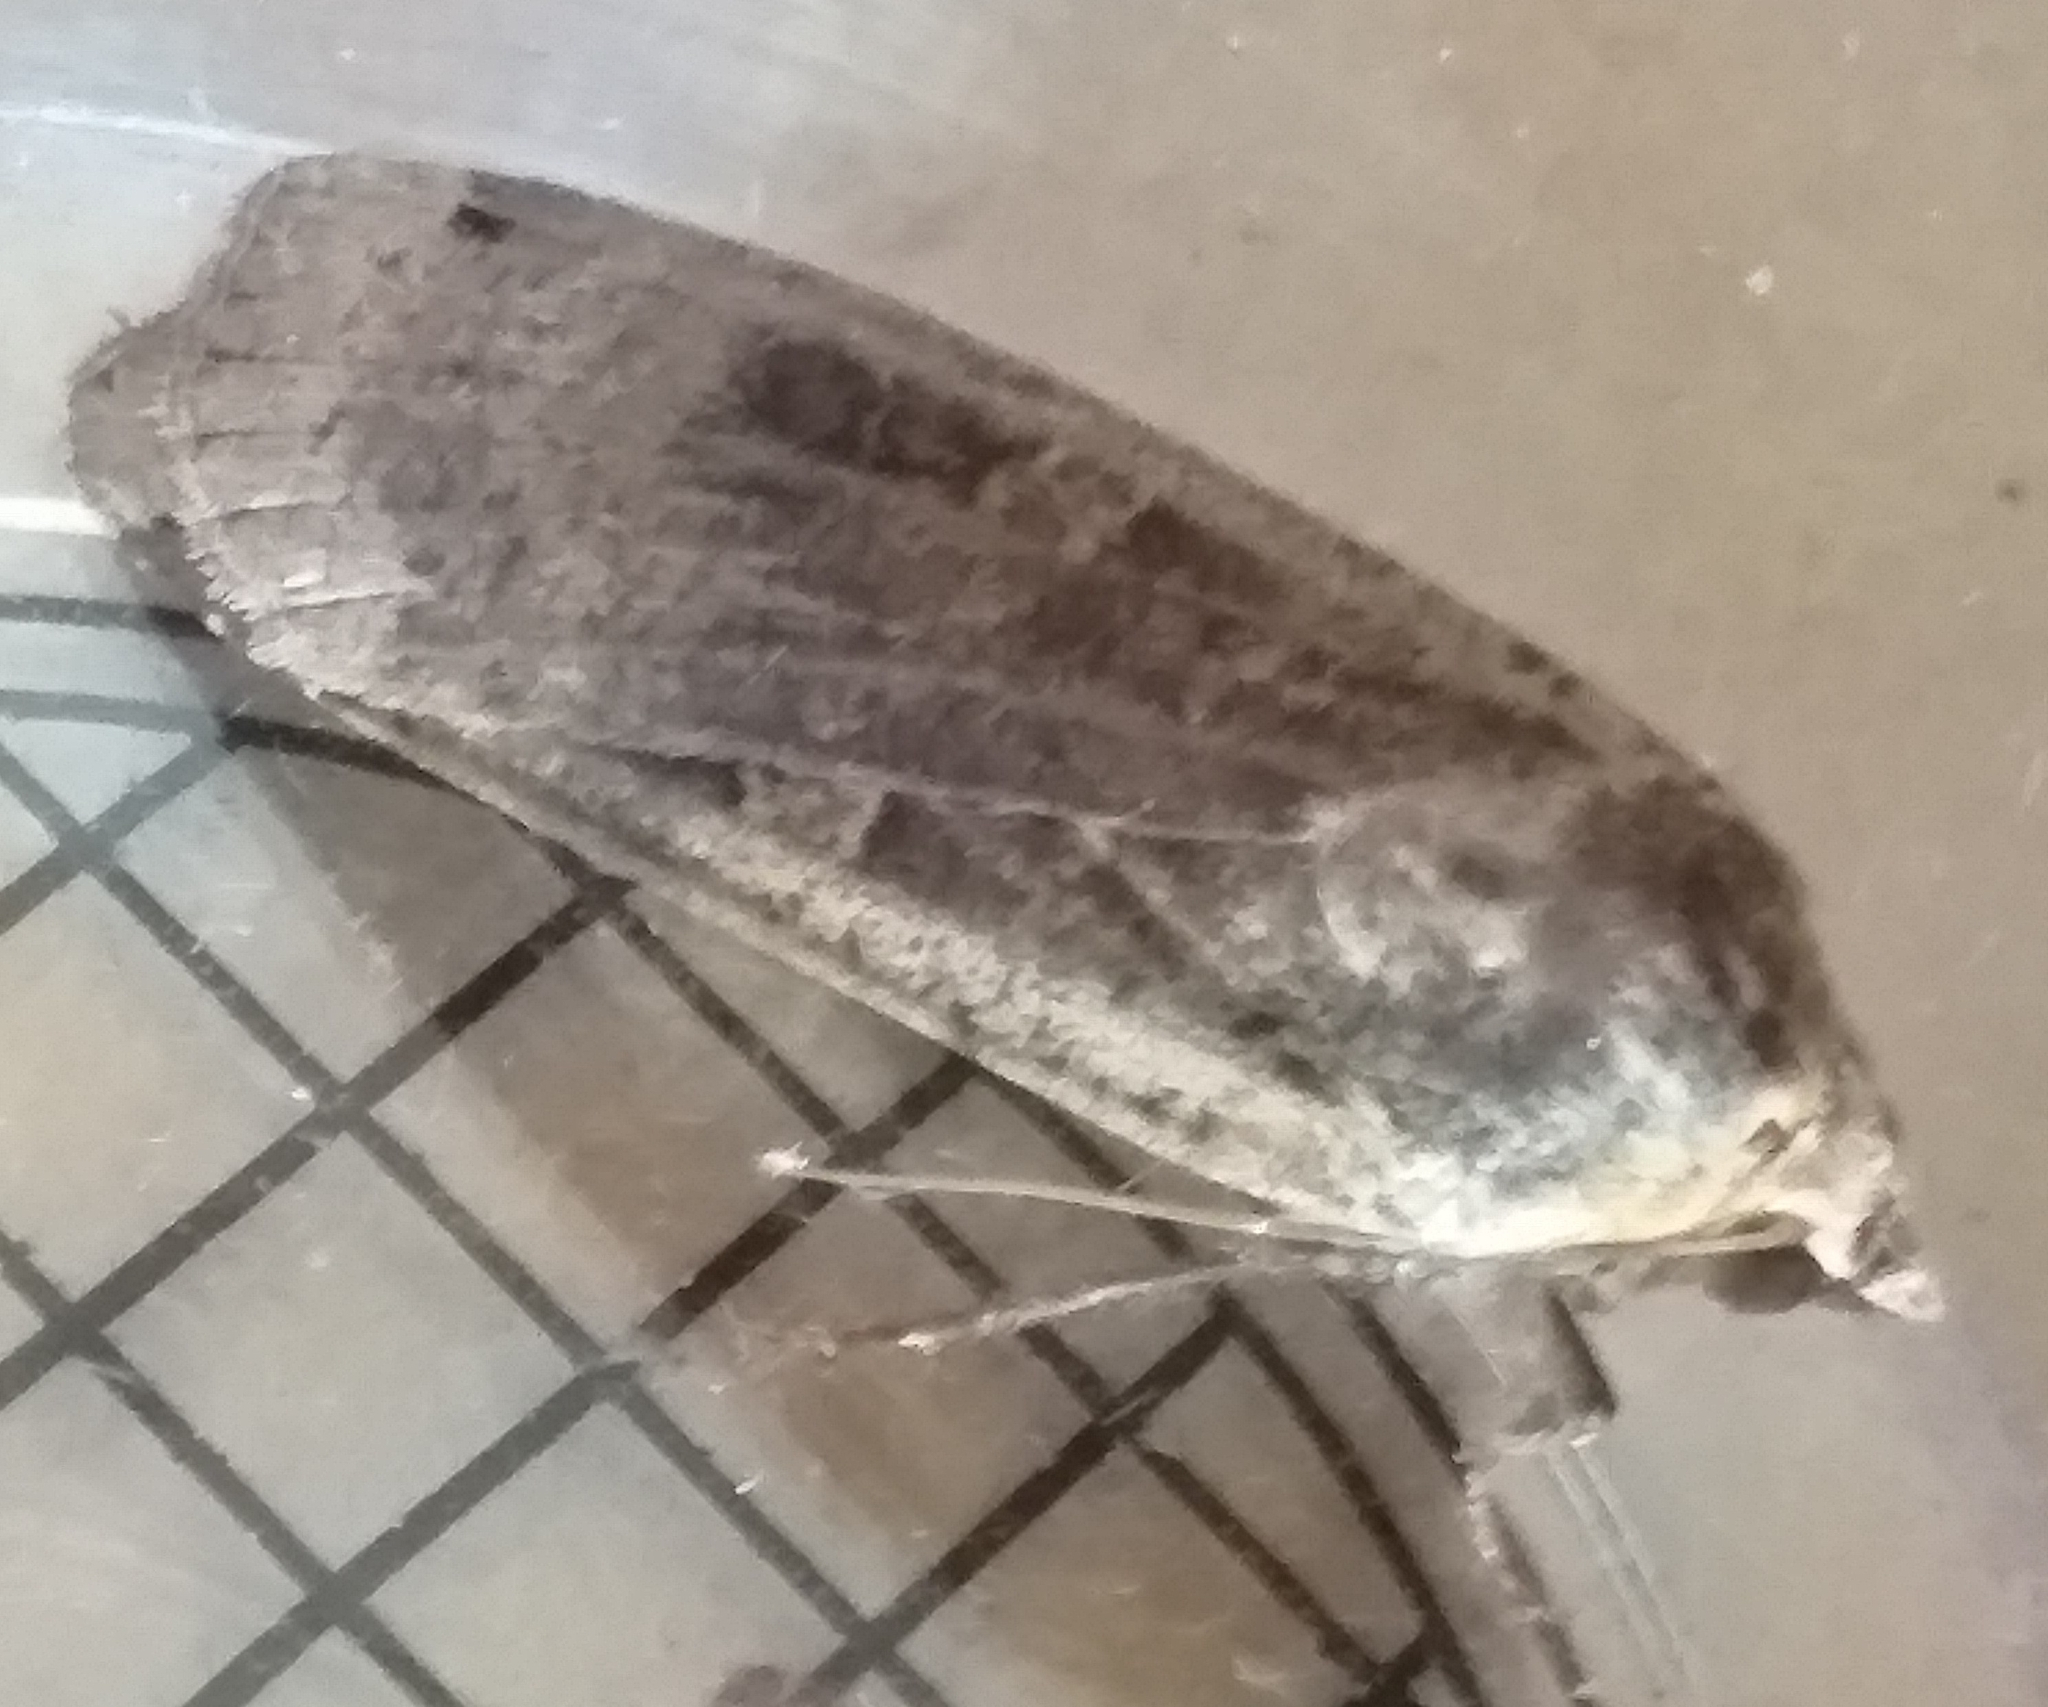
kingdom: Animalia
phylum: Arthropoda
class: Insecta
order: Lepidoptera
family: Noctuidae
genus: Noctua
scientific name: Noctua pronuba
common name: Large yellow underwing
